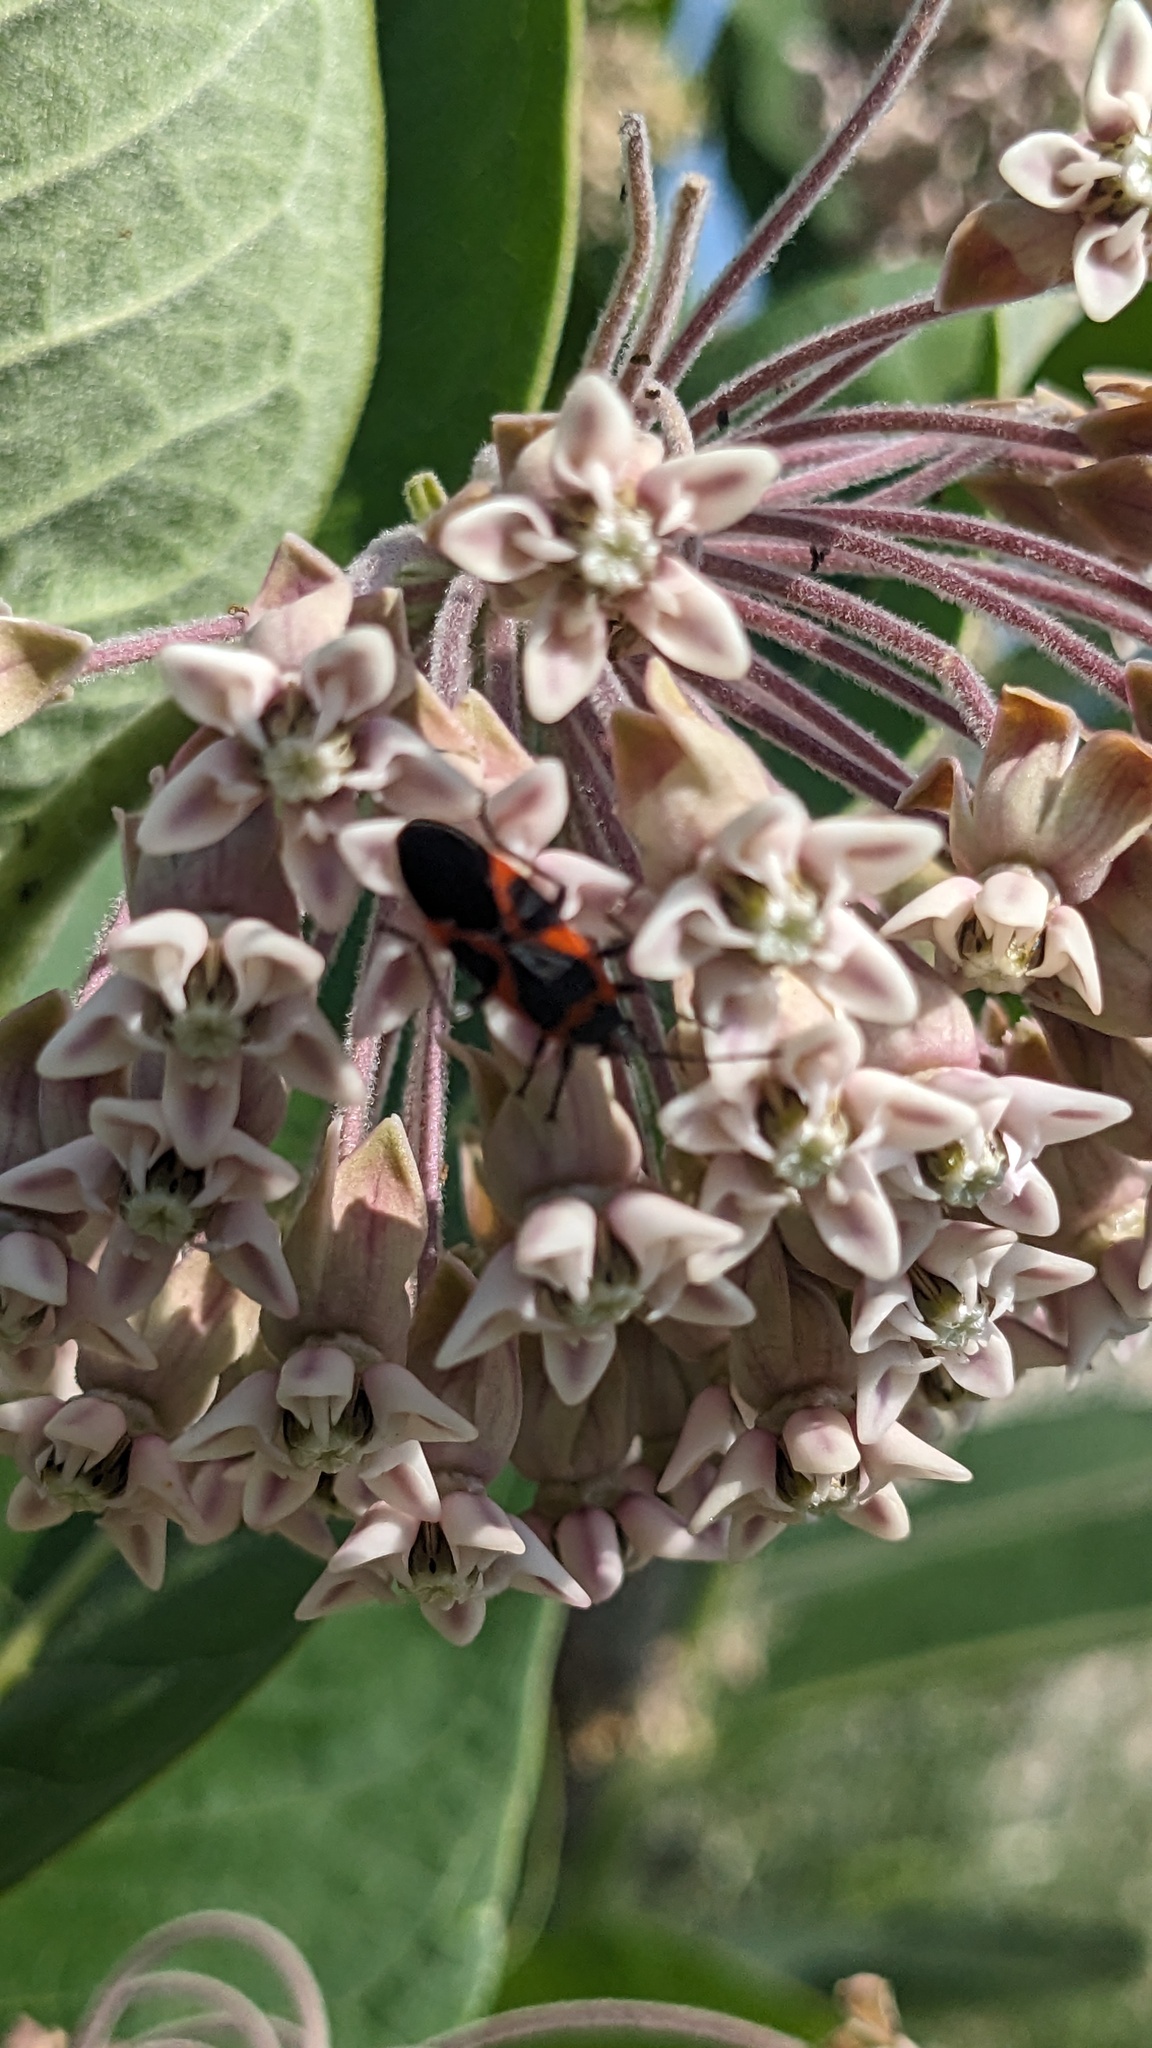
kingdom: Animalia
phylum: Arthropoda
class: Insecta
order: Hemiptera
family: Lygaeidae
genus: Lygaeus
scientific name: Lygaeus kalmii
